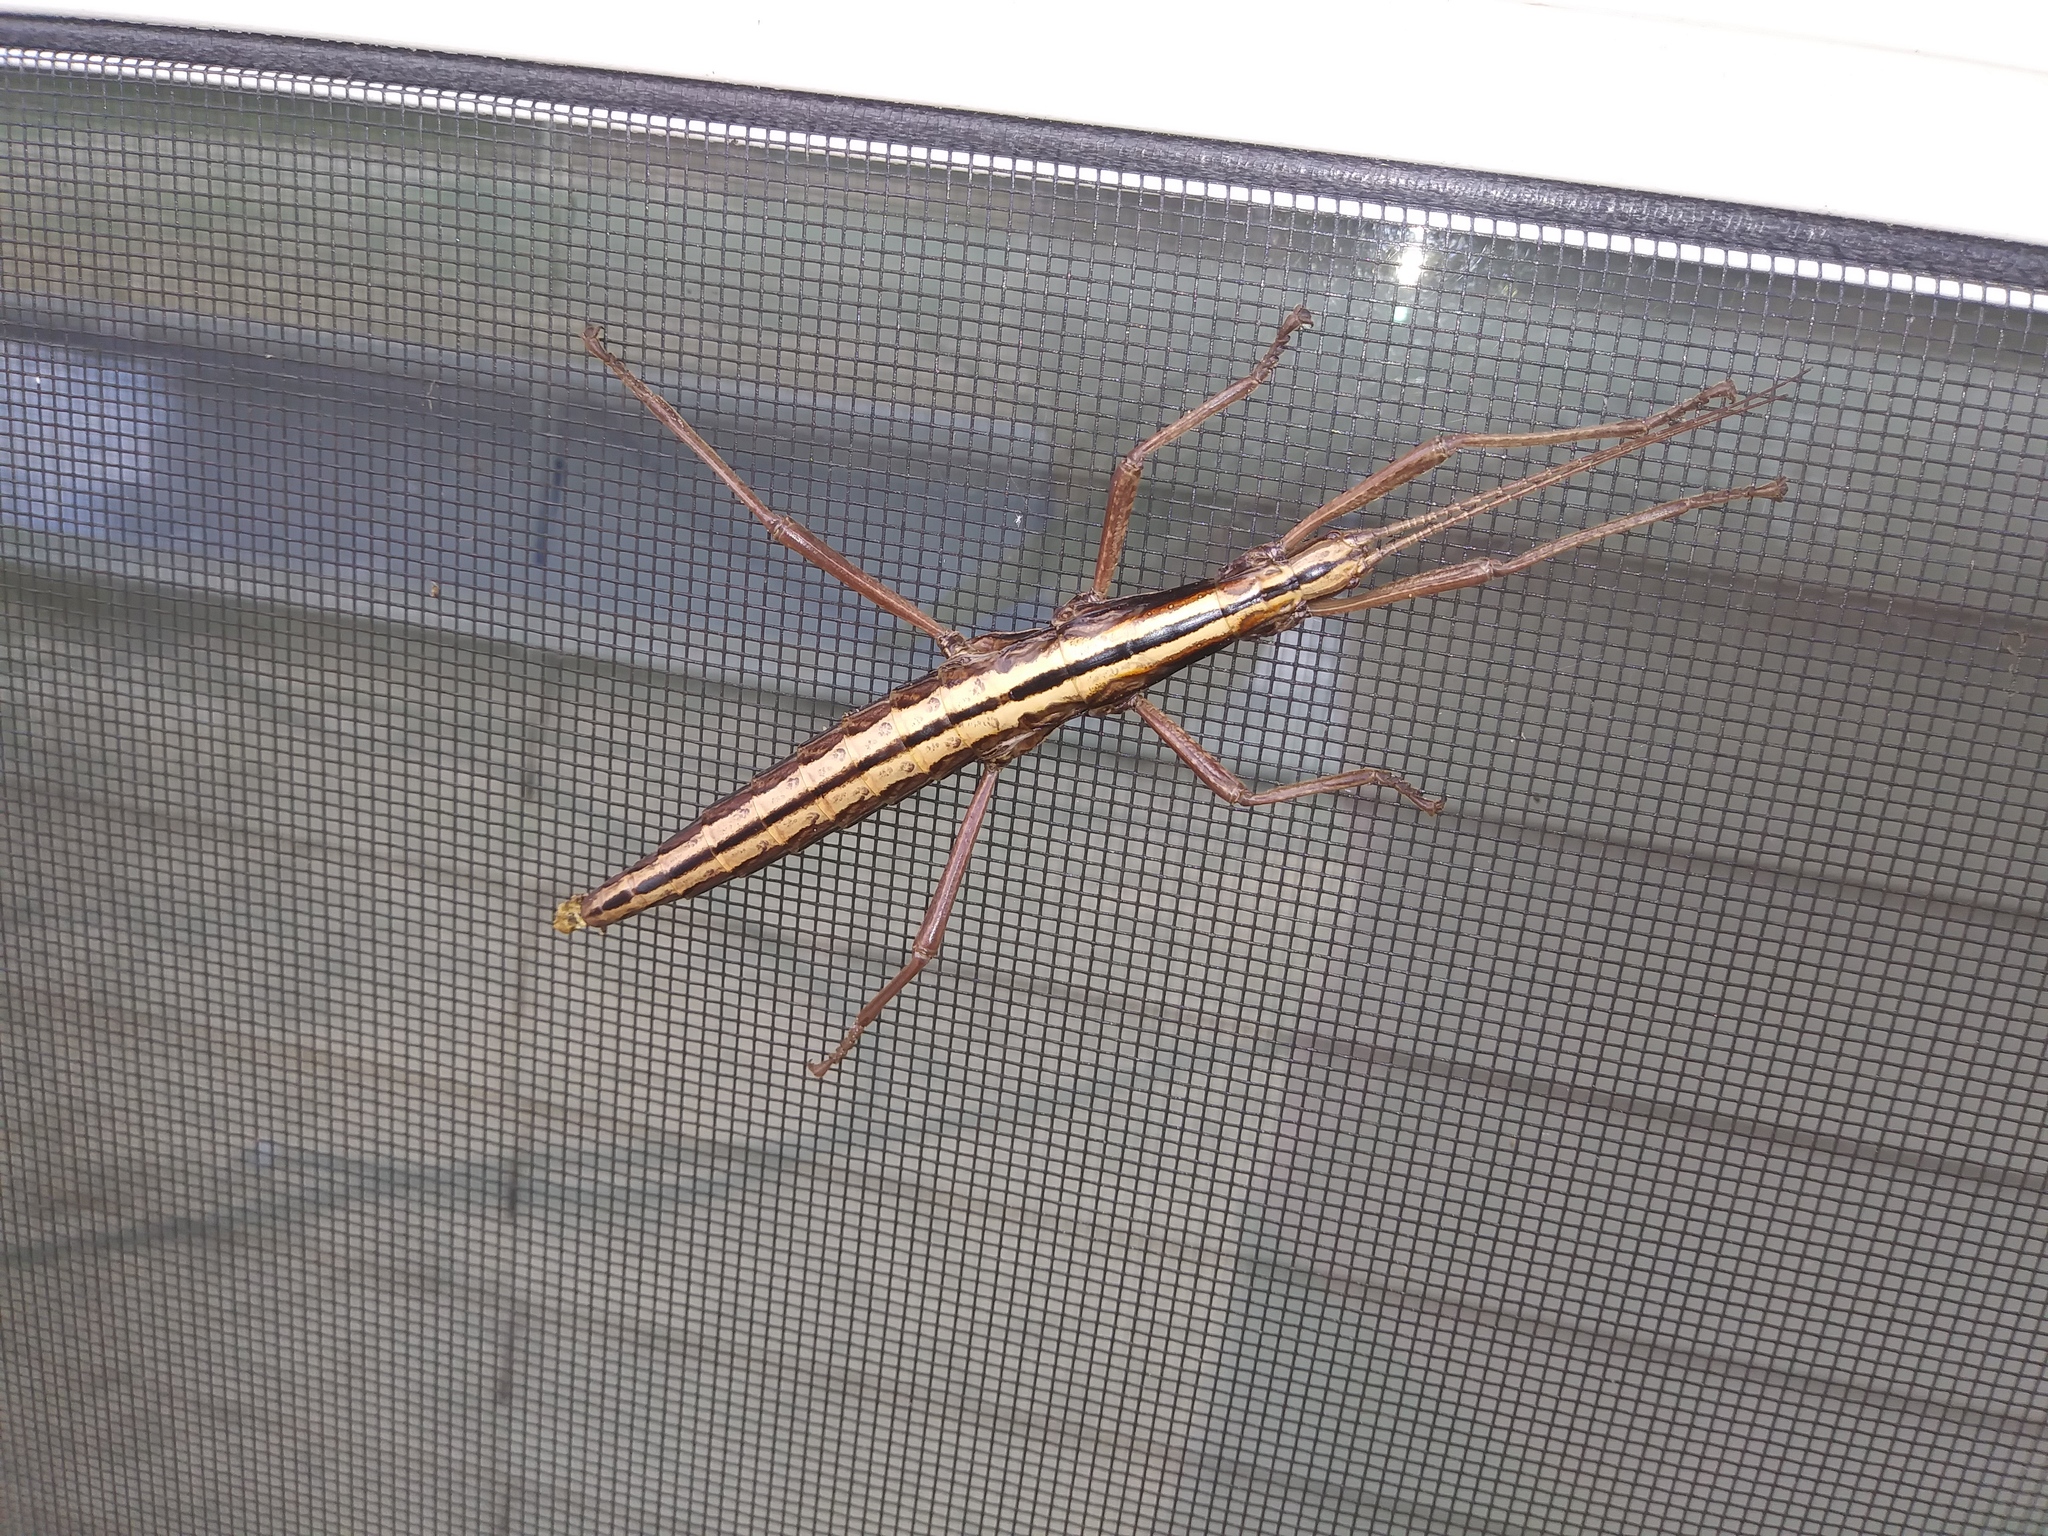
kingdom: Animalia
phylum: Arthropoda
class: Insecta
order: Phasmida
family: Pseudophasmatidae
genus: Anisomorpha
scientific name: Anisomorpha buprestoides
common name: Florida stick insect
